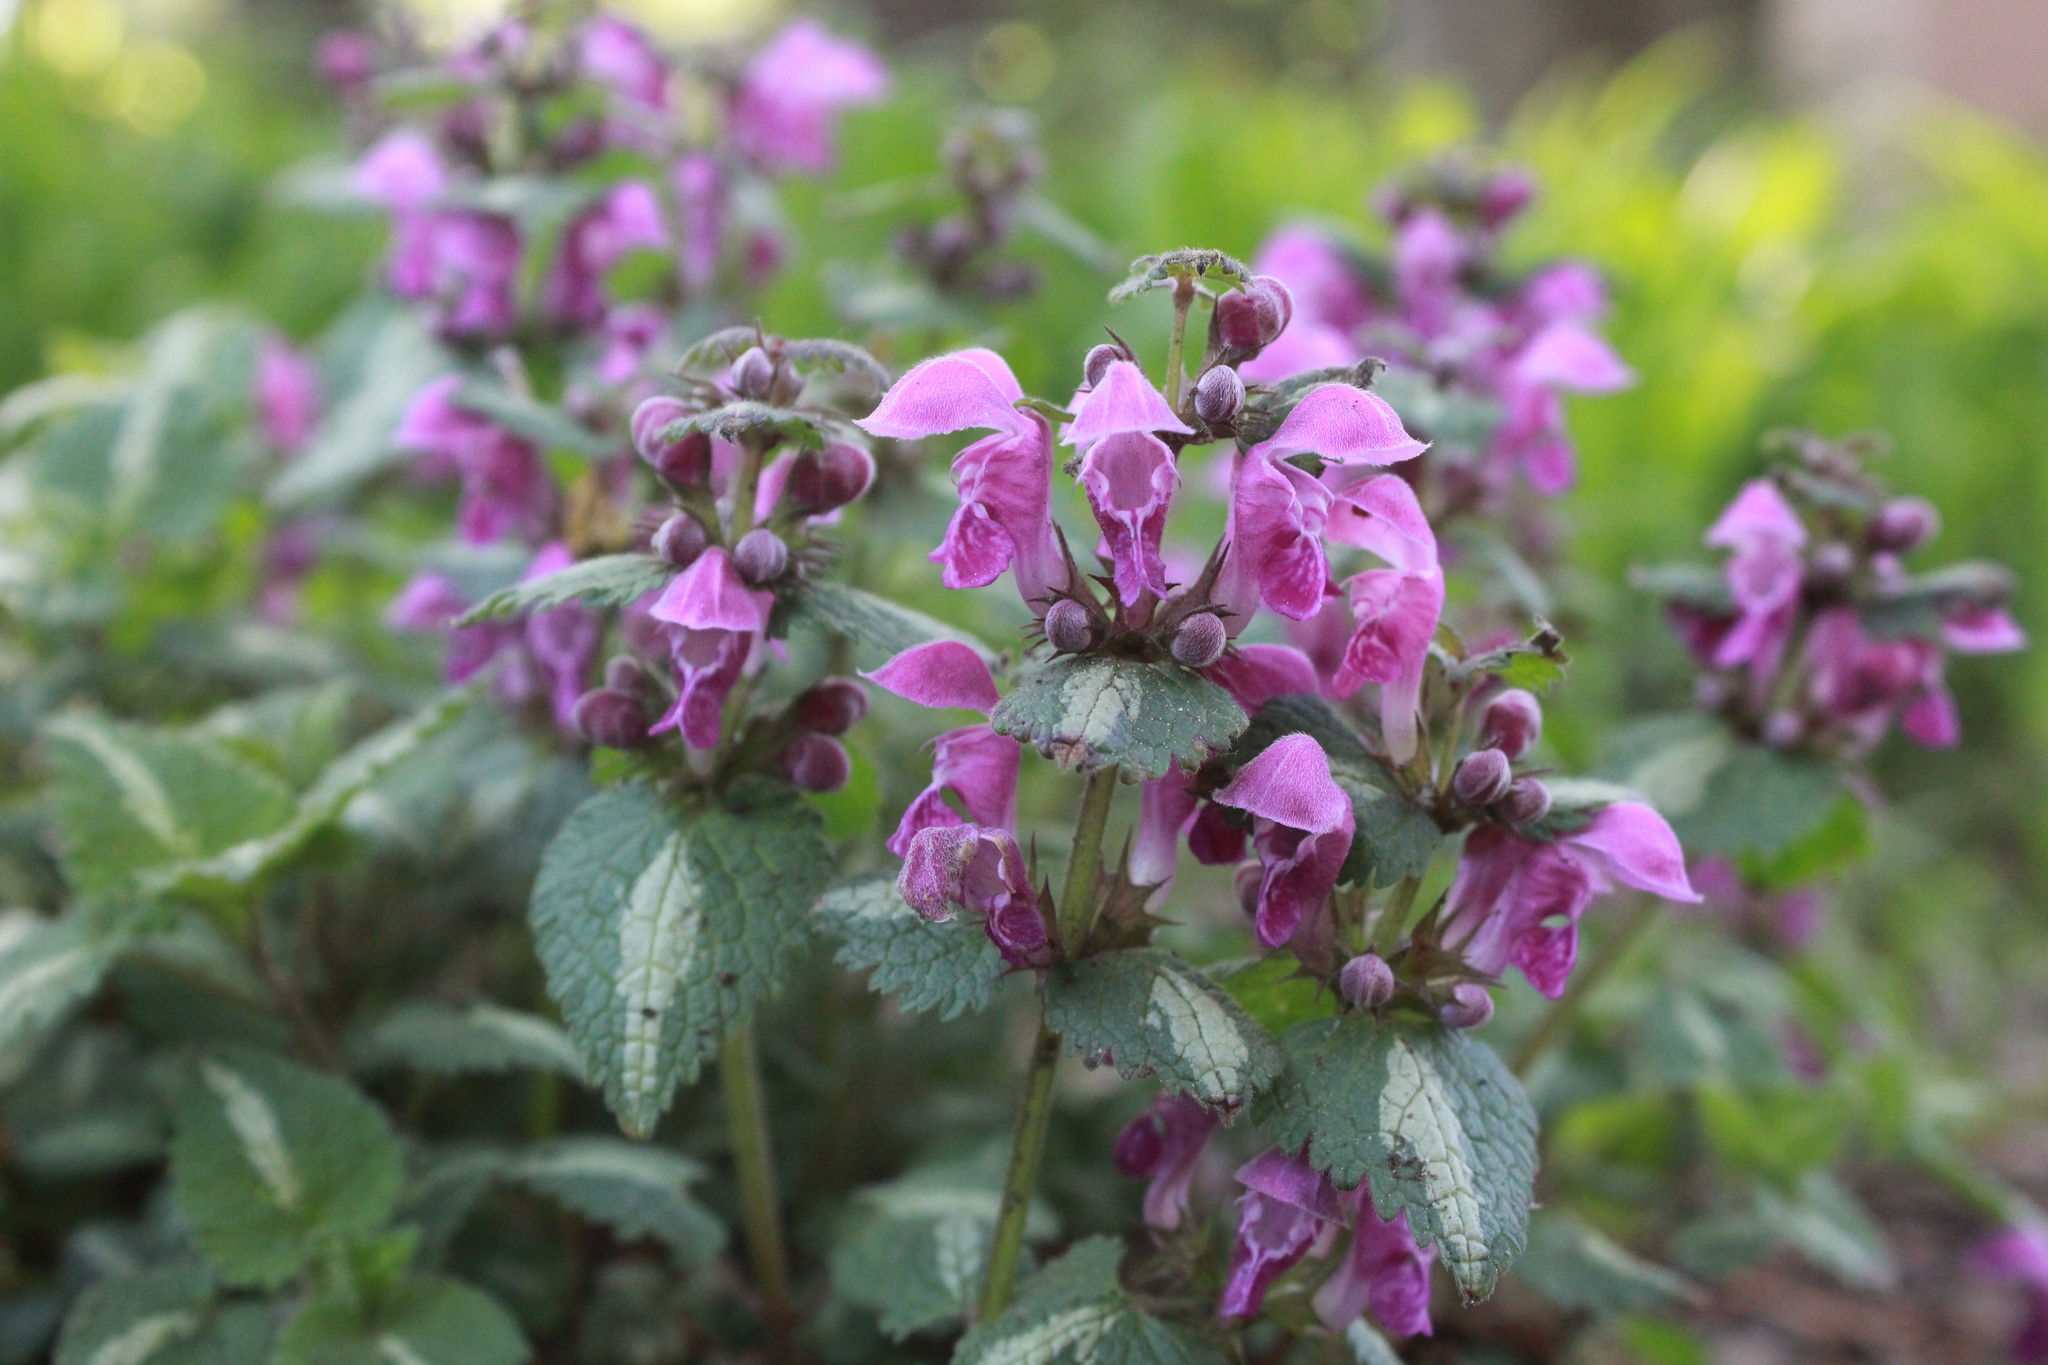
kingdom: Plantae
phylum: Tracheophyta
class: Magnoliopsida
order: Lamiales
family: Lamiaceae
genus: Lamium
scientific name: Lamium maculatum
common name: Spotted dead-nettle
